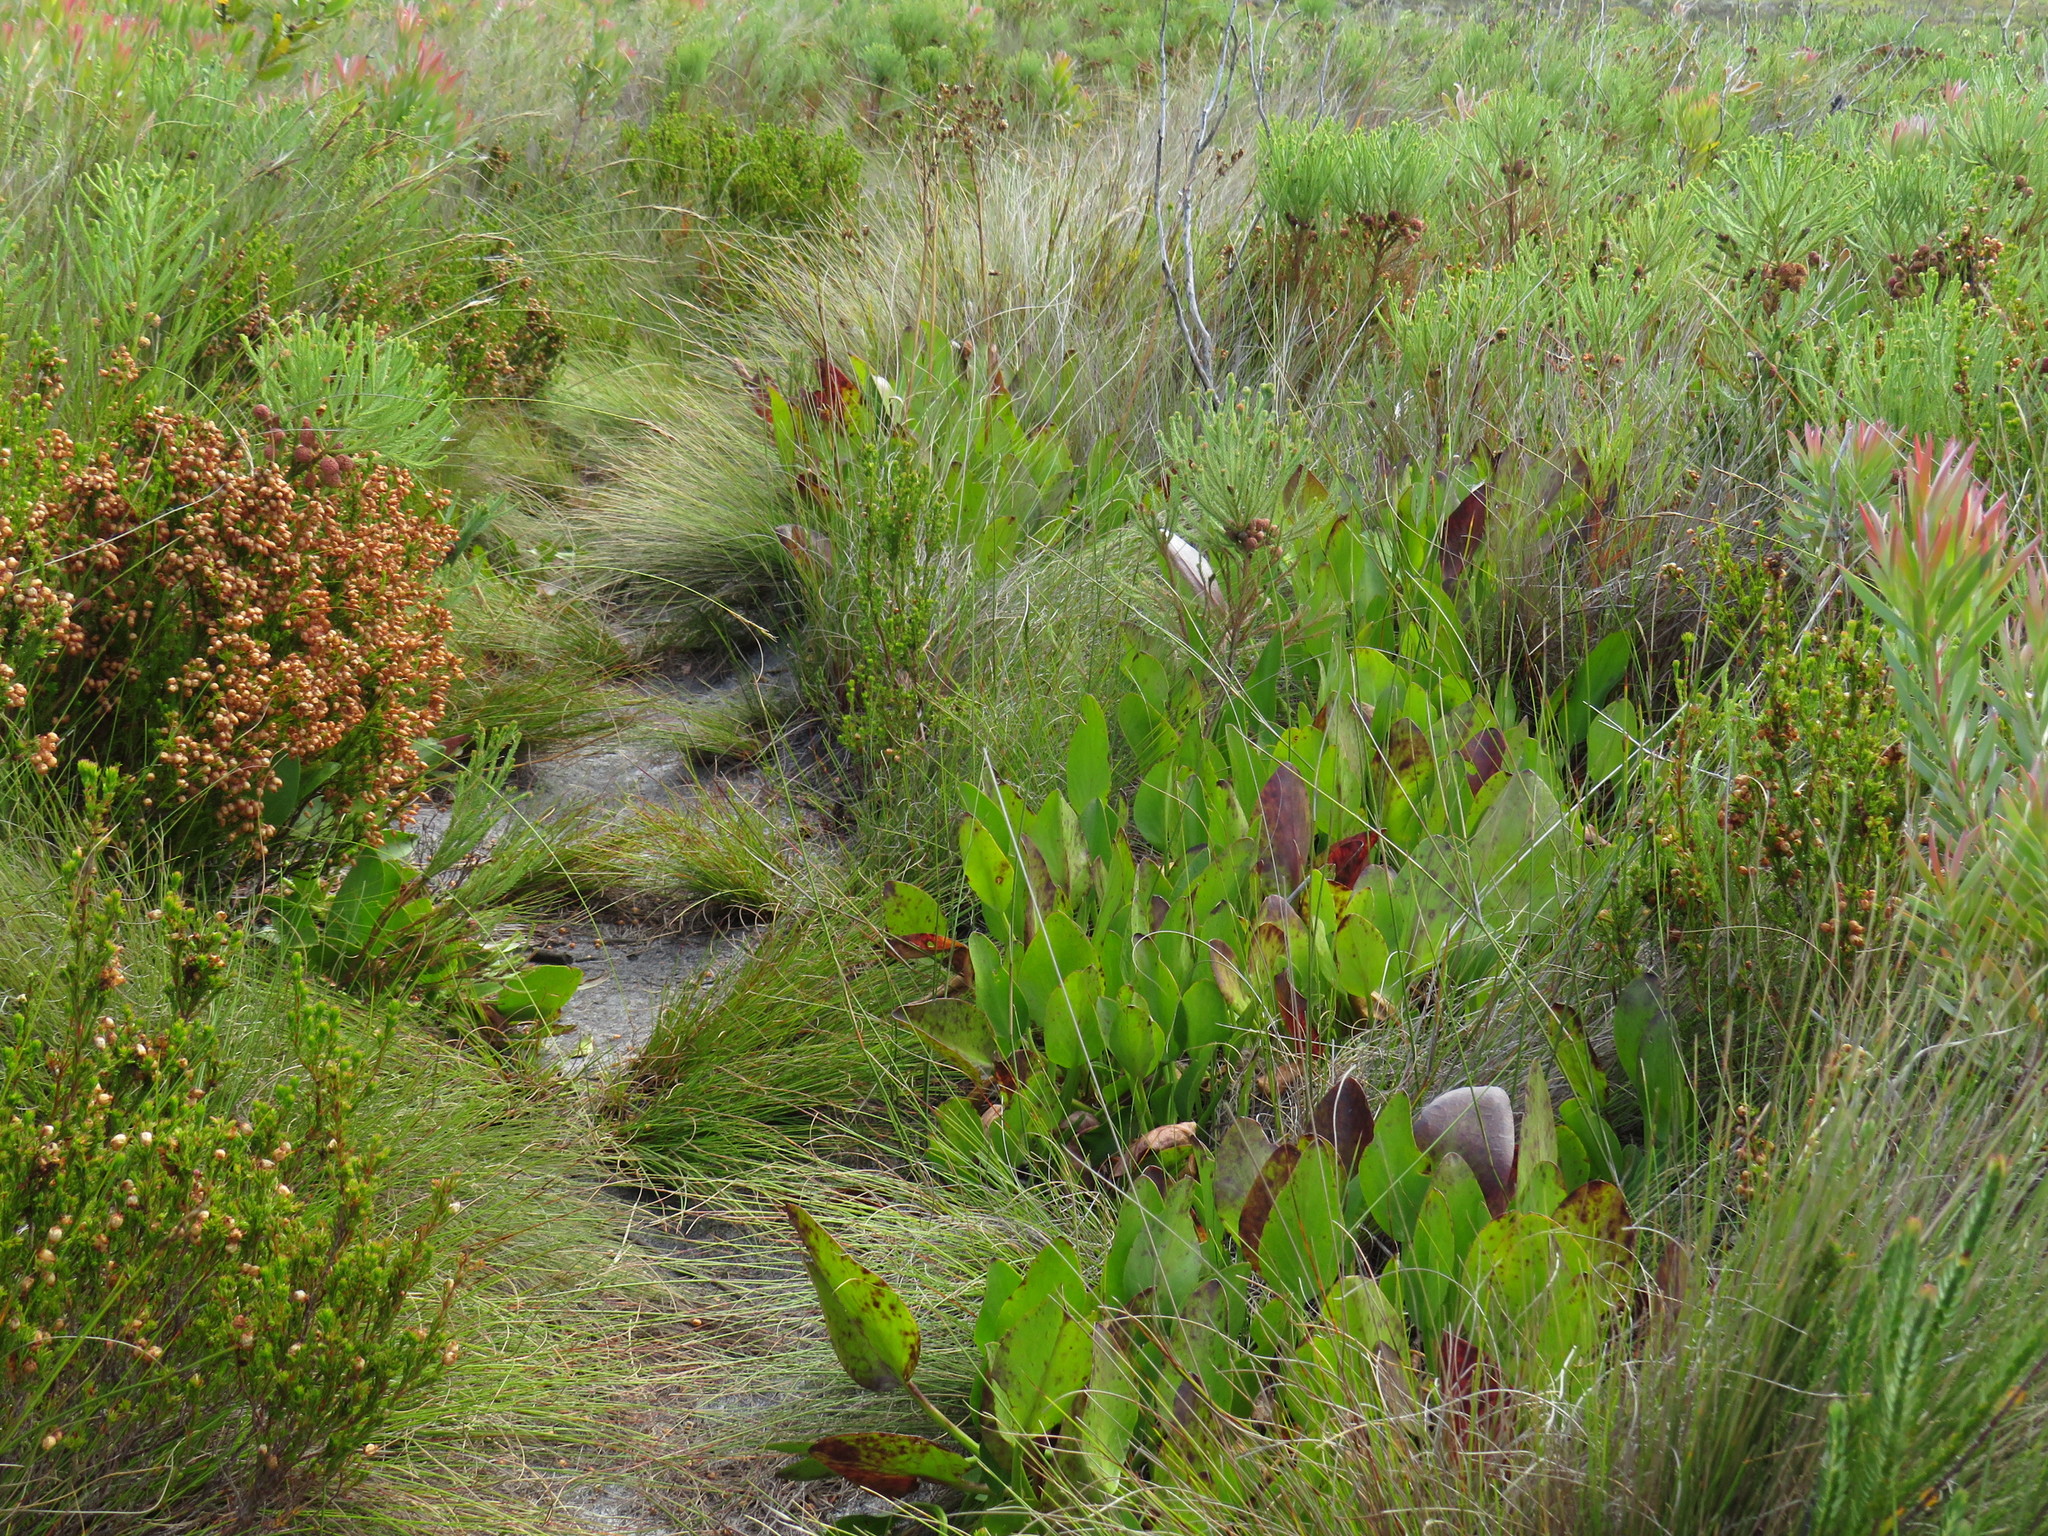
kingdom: Plantae
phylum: Tracheophyta
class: Magnoliopsida
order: Asterales
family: Menyanthaceae
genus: Villarsia
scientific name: Villarsia goldblattiana
